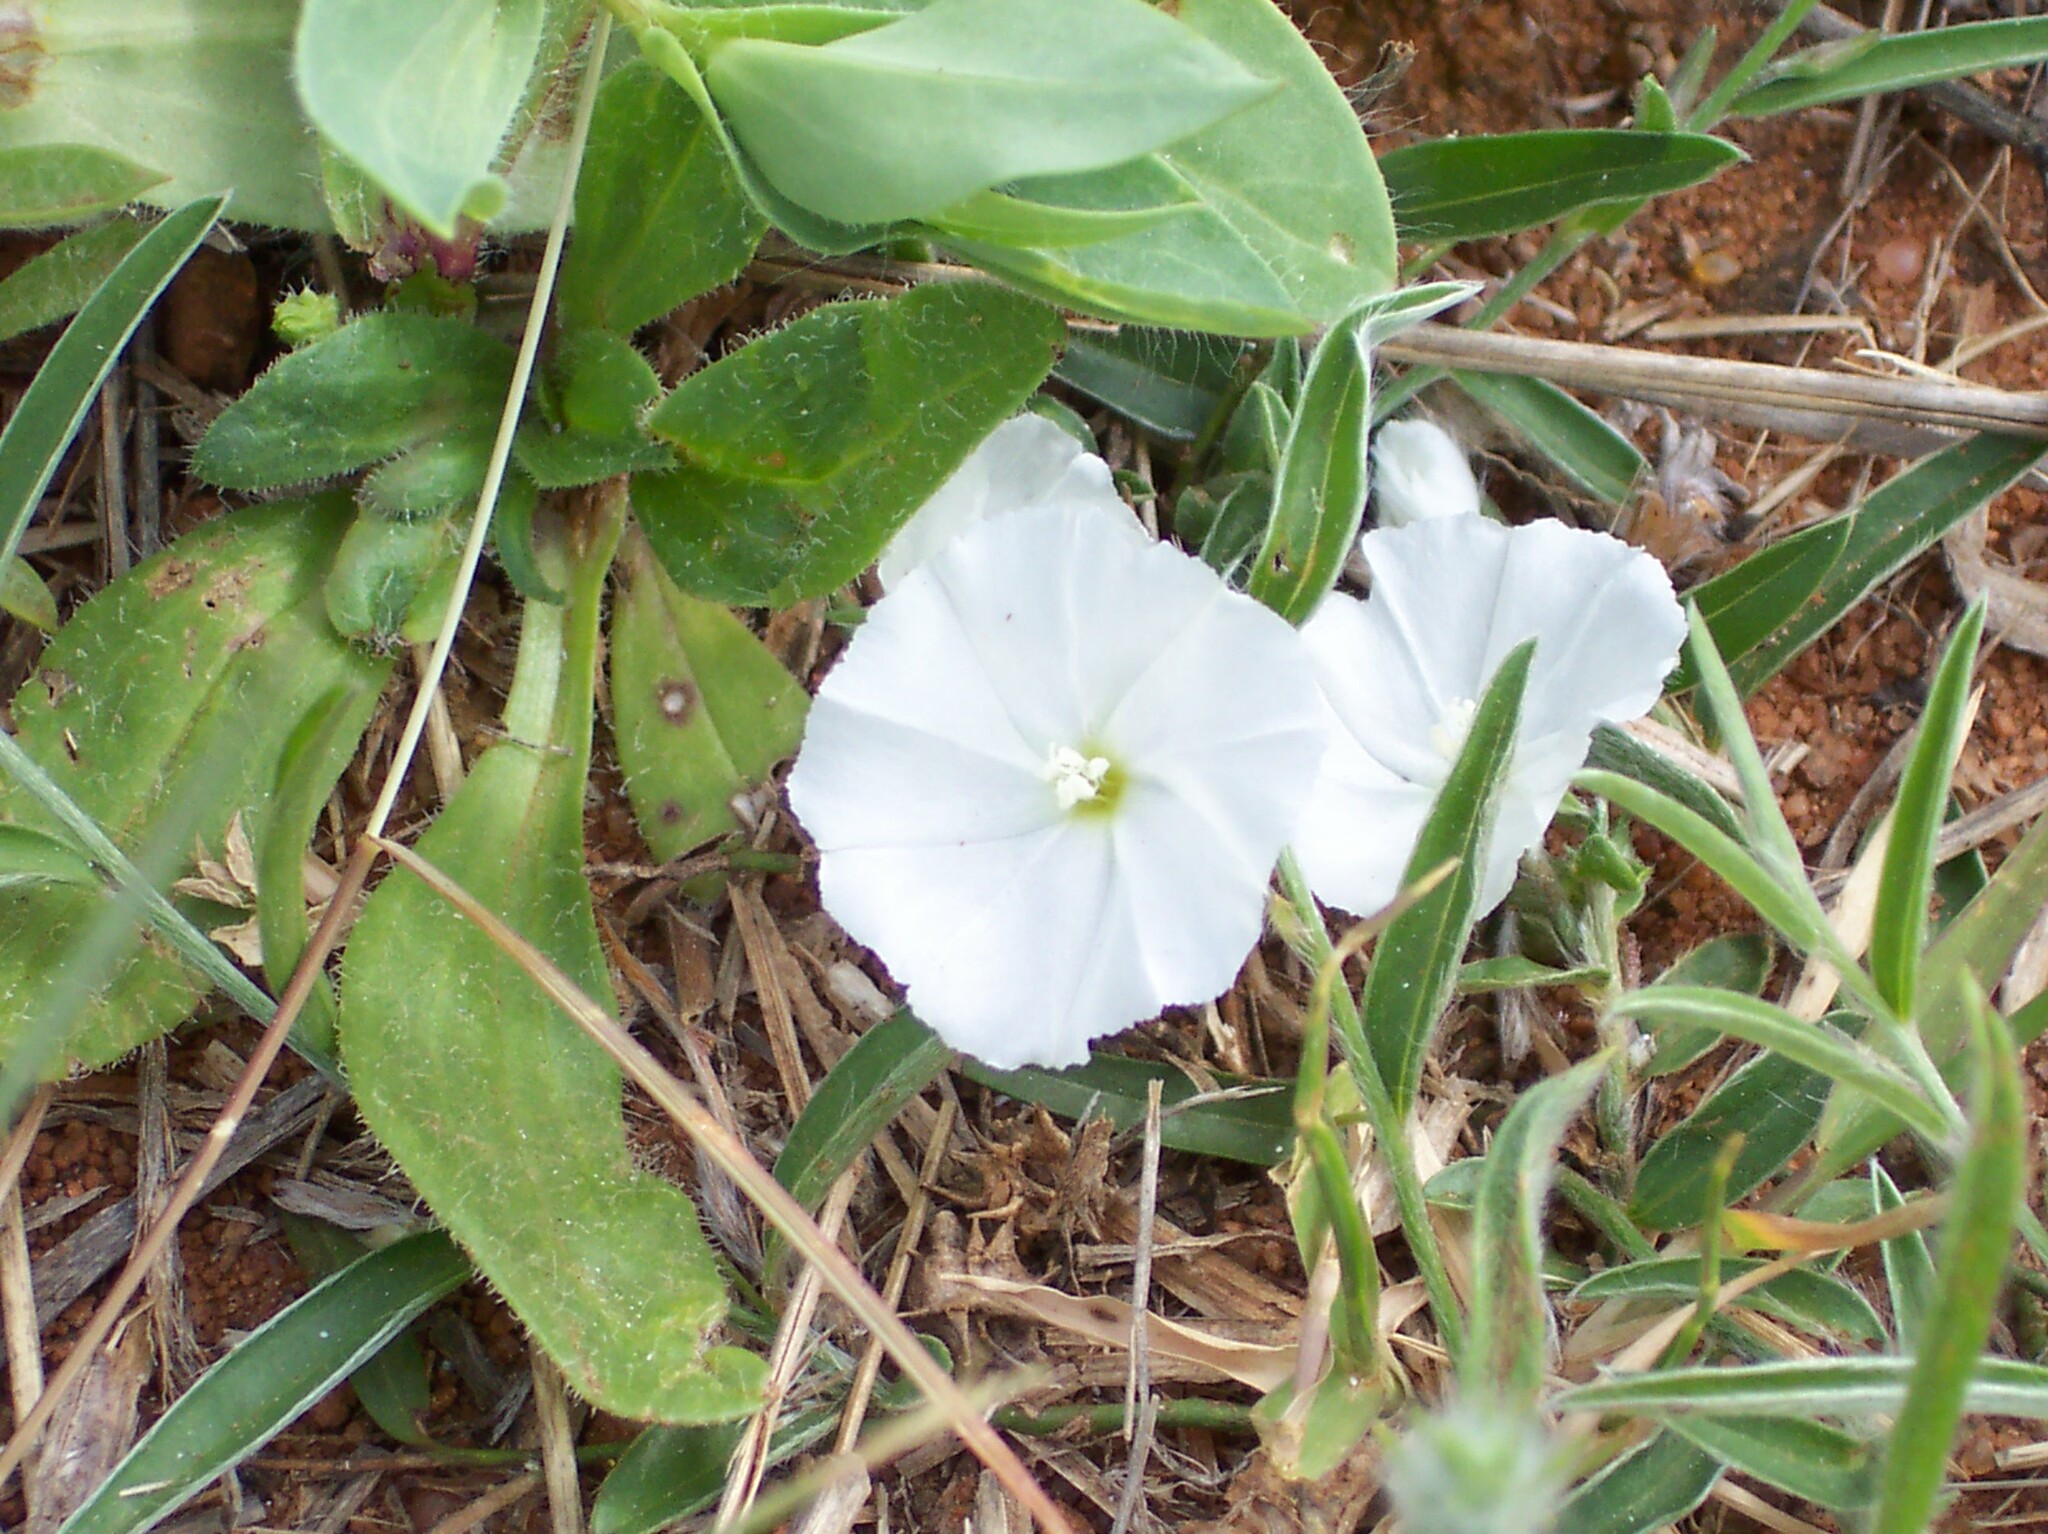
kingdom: Plantae
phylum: Tracheophyta
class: Magnoliopsida
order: Solanales
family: Convolvulaceae
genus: Evolvulus
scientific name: Evolvulus sericeus
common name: Blue dots
